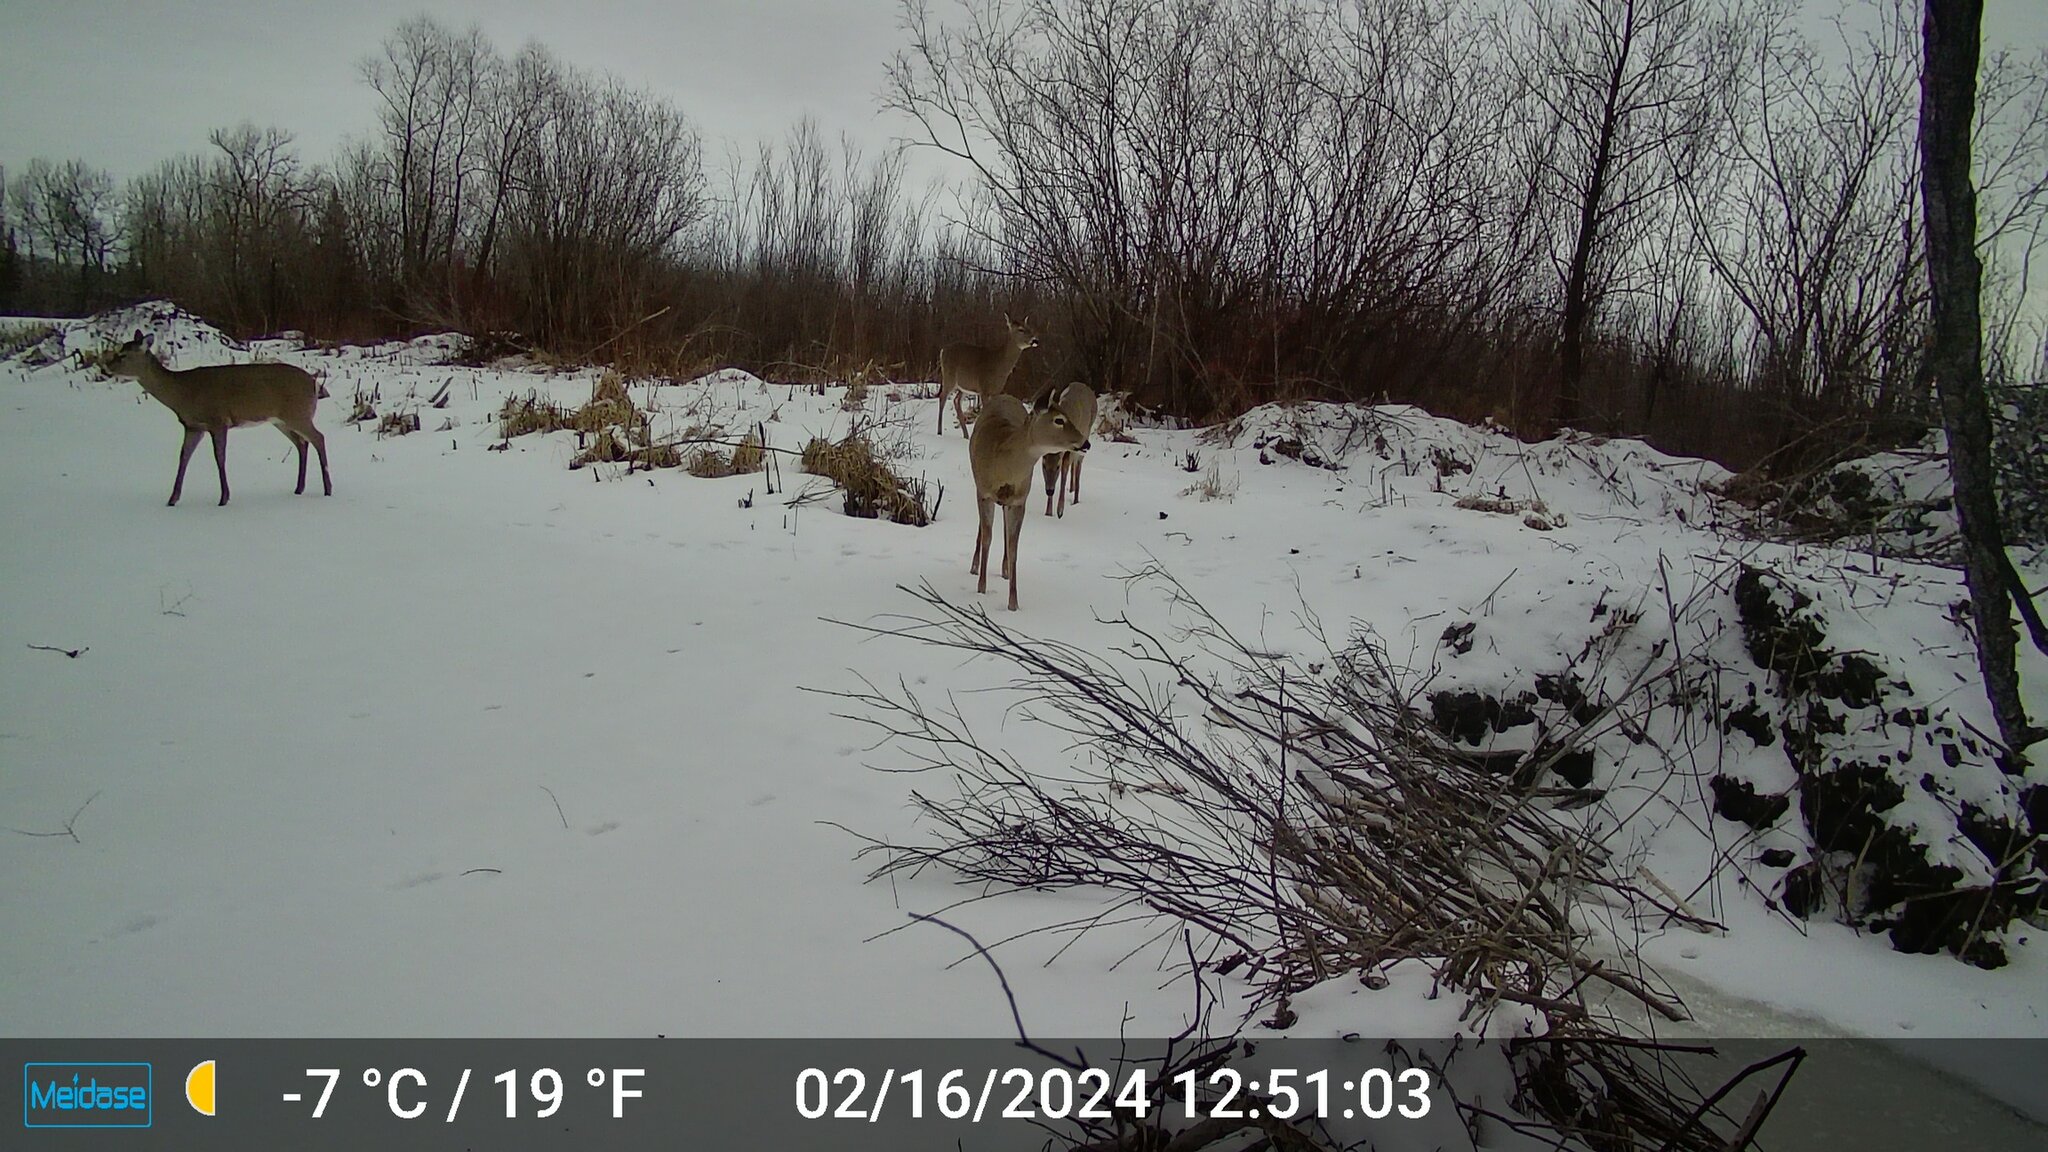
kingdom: Animalia
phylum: Chordata
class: Mammalia
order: Artiodactyla
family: Cervidae
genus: Odocoileus
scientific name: Odocoileus virginianus
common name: White-tailed deer
